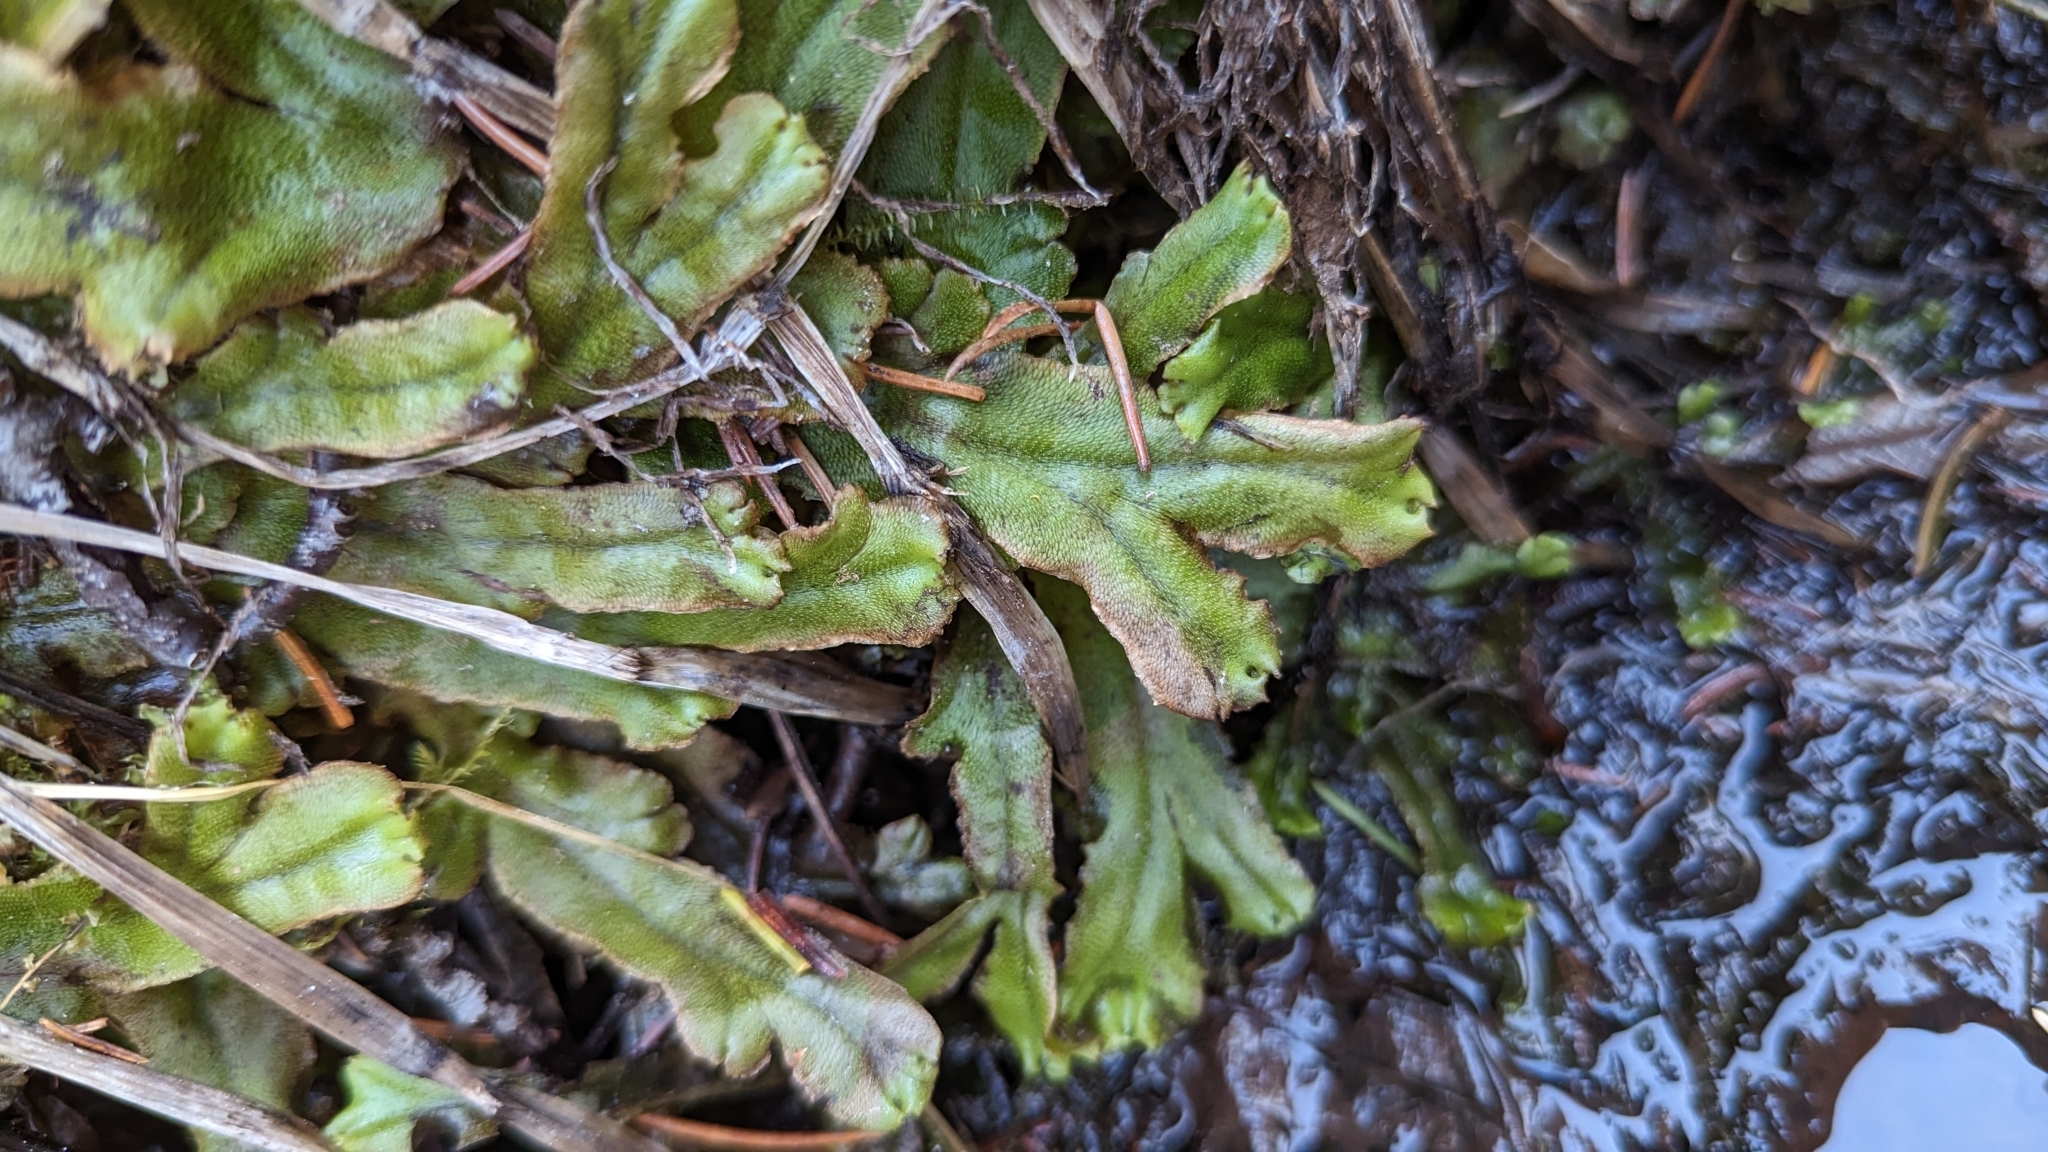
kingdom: Plantae
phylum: Marchantiophyta
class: Marchantiopsida
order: Marchantiales
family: Marchantiaceae
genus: Marchantia
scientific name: Marchantia polymorpha
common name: Common liverwort
